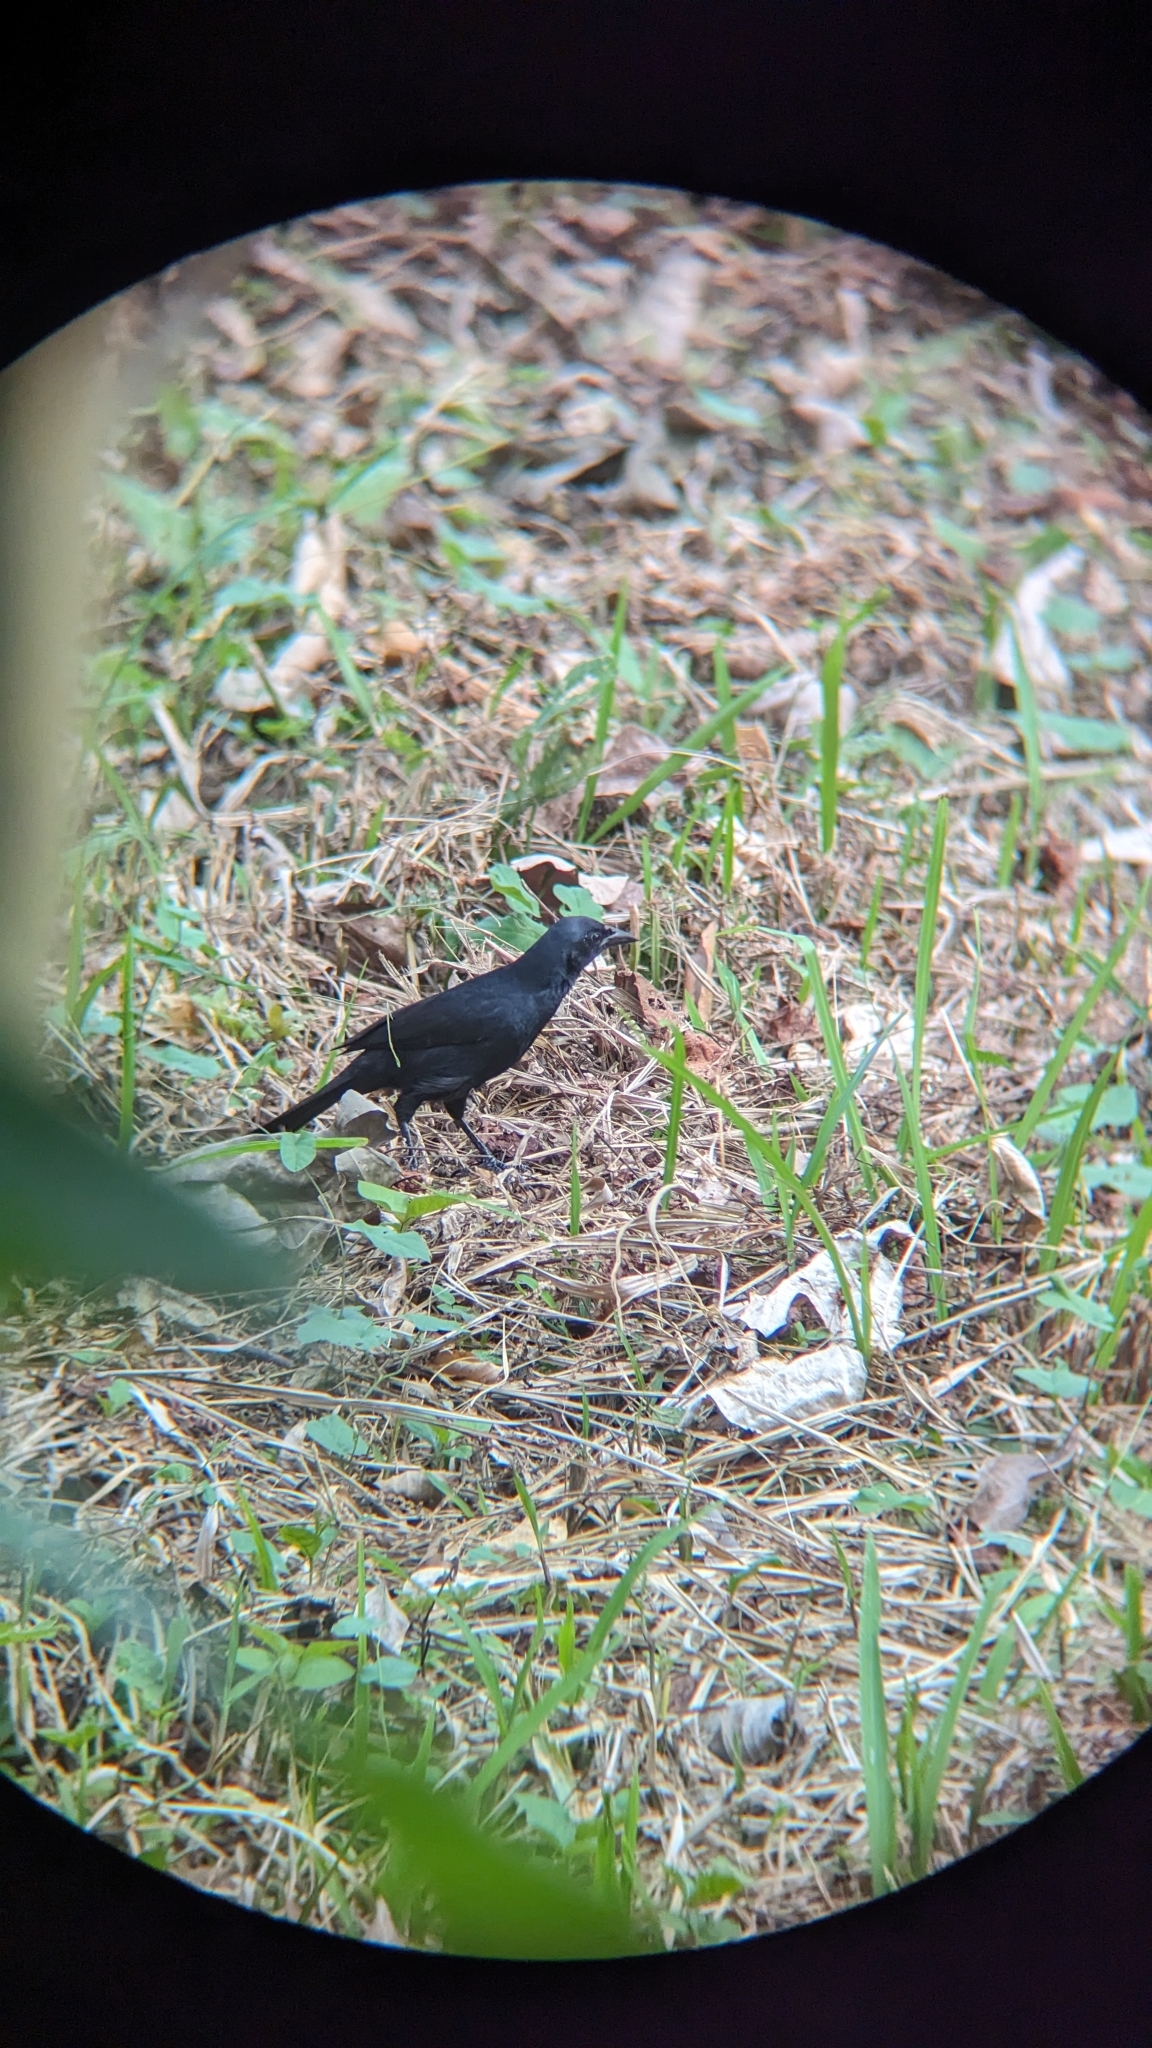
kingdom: Animalia
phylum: Chordata
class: Aves
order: Passeriformes
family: Icteridae
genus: Dives
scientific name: Dives dives
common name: Melodious blackbird
